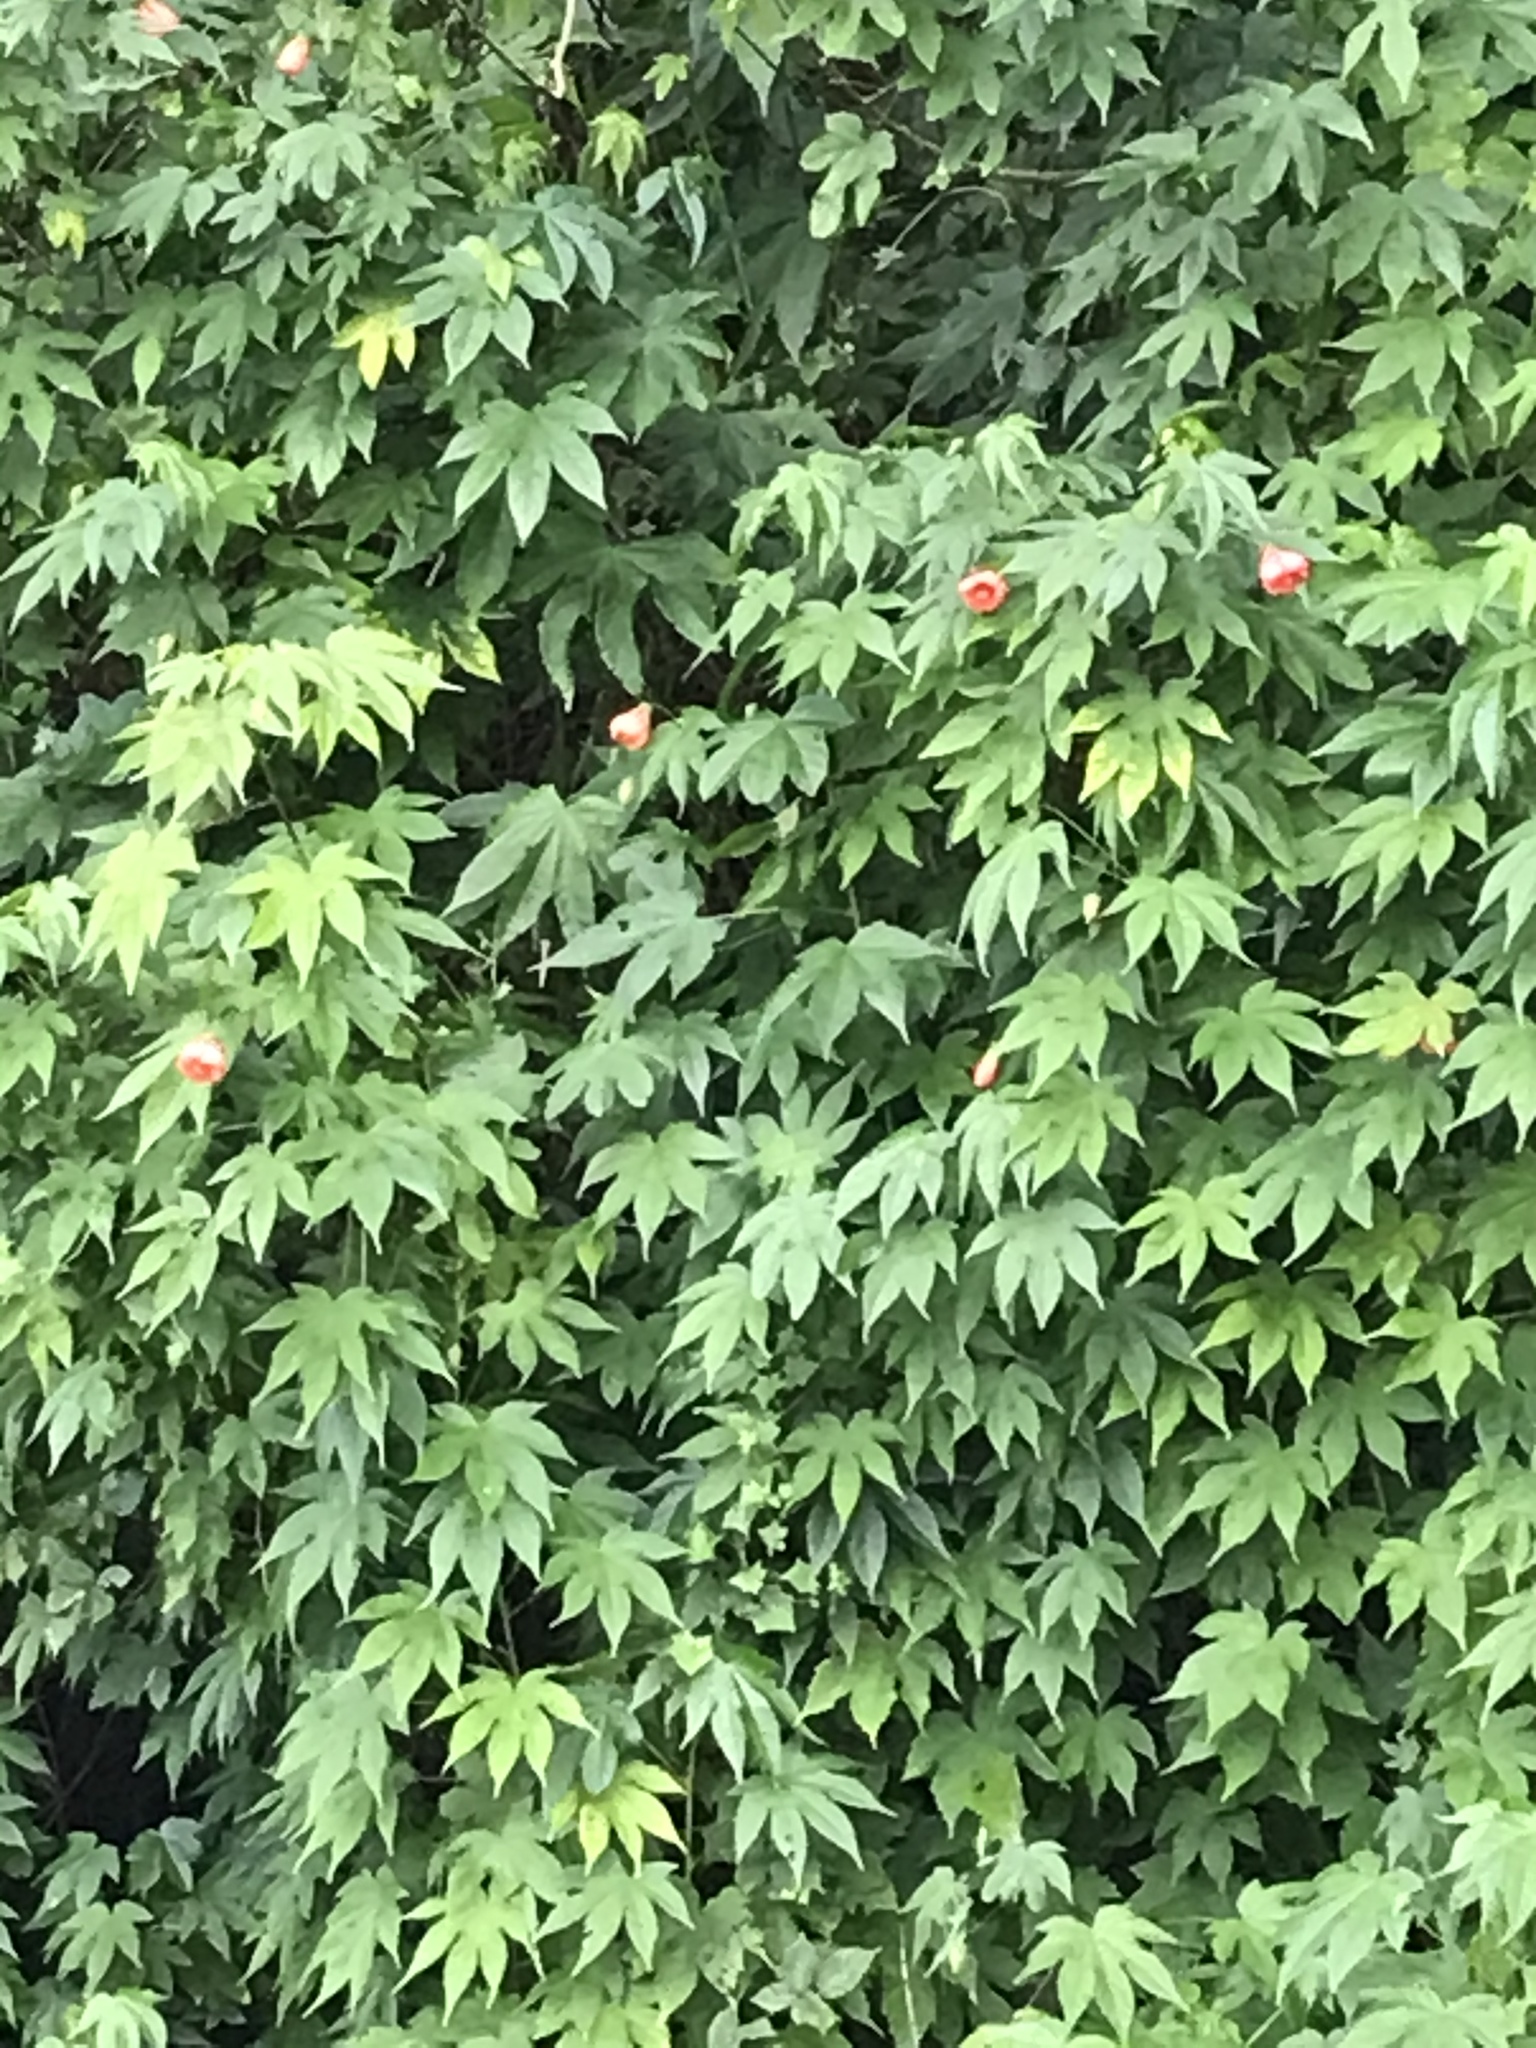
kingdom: Plantae
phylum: Tracheophyta
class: Magnoliopsida
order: Malvales
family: Malvaceae
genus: Callianthe
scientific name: Callianthe picta
